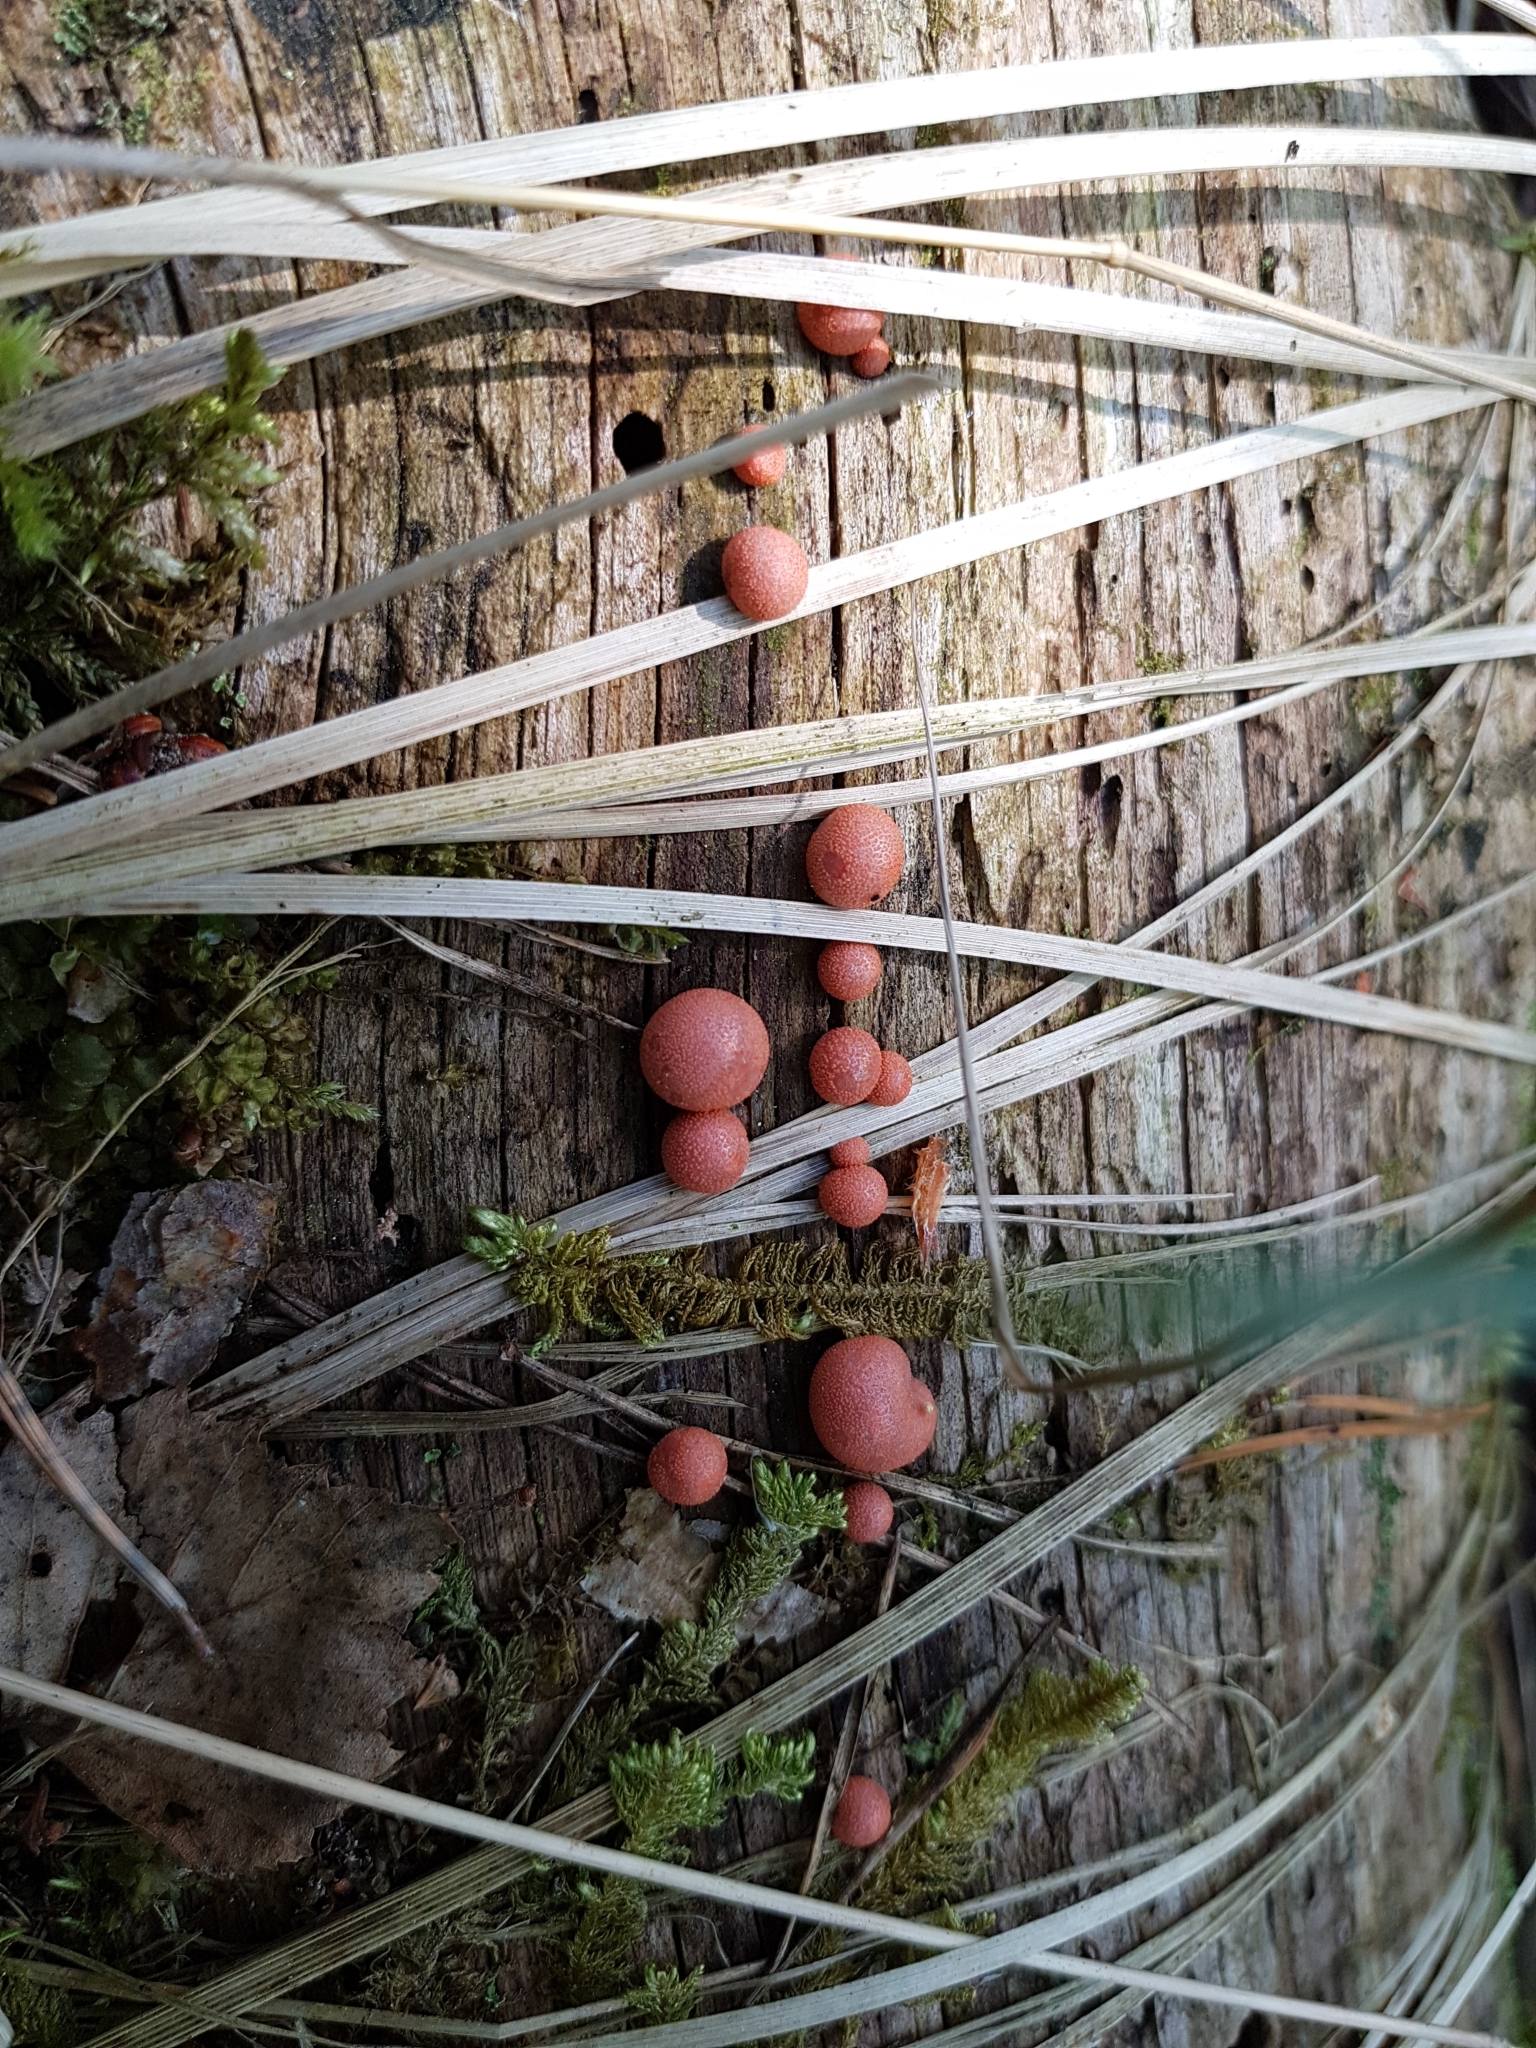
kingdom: Protozoa
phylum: Mycetozoa
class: Myxomycetes
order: Cribrariales
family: Tubiferaceae
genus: Lycogala
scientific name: Lycogala epidendrum
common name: Wolf's milk
